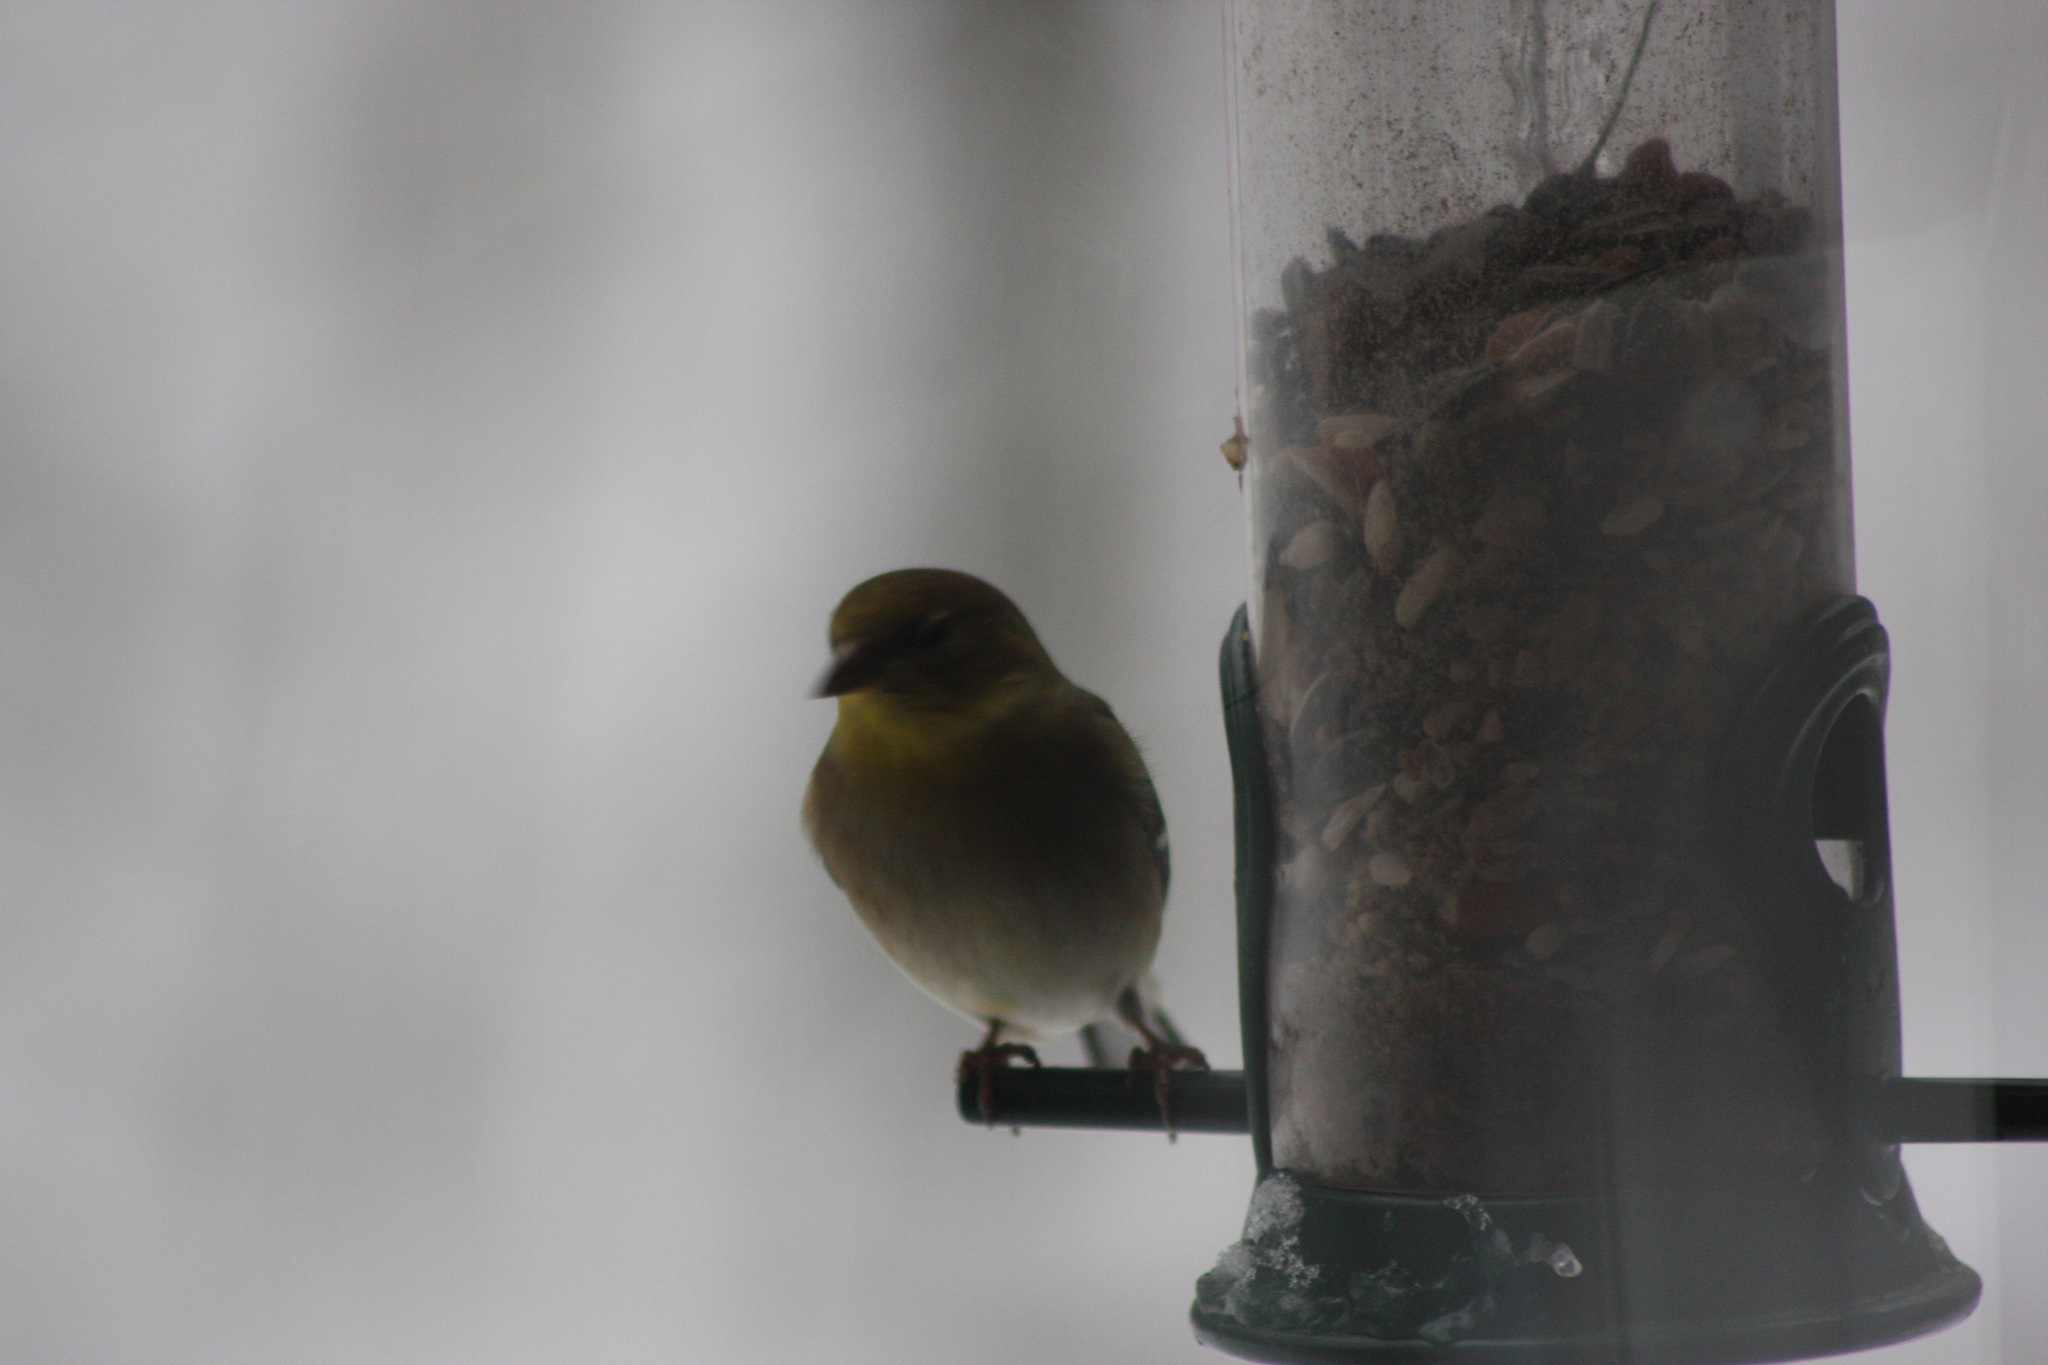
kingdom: Animalia
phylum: Chordata
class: Aves
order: Passeriformes
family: Fringillidae
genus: Spinus
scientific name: Spinus tristis
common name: American goldfinch
